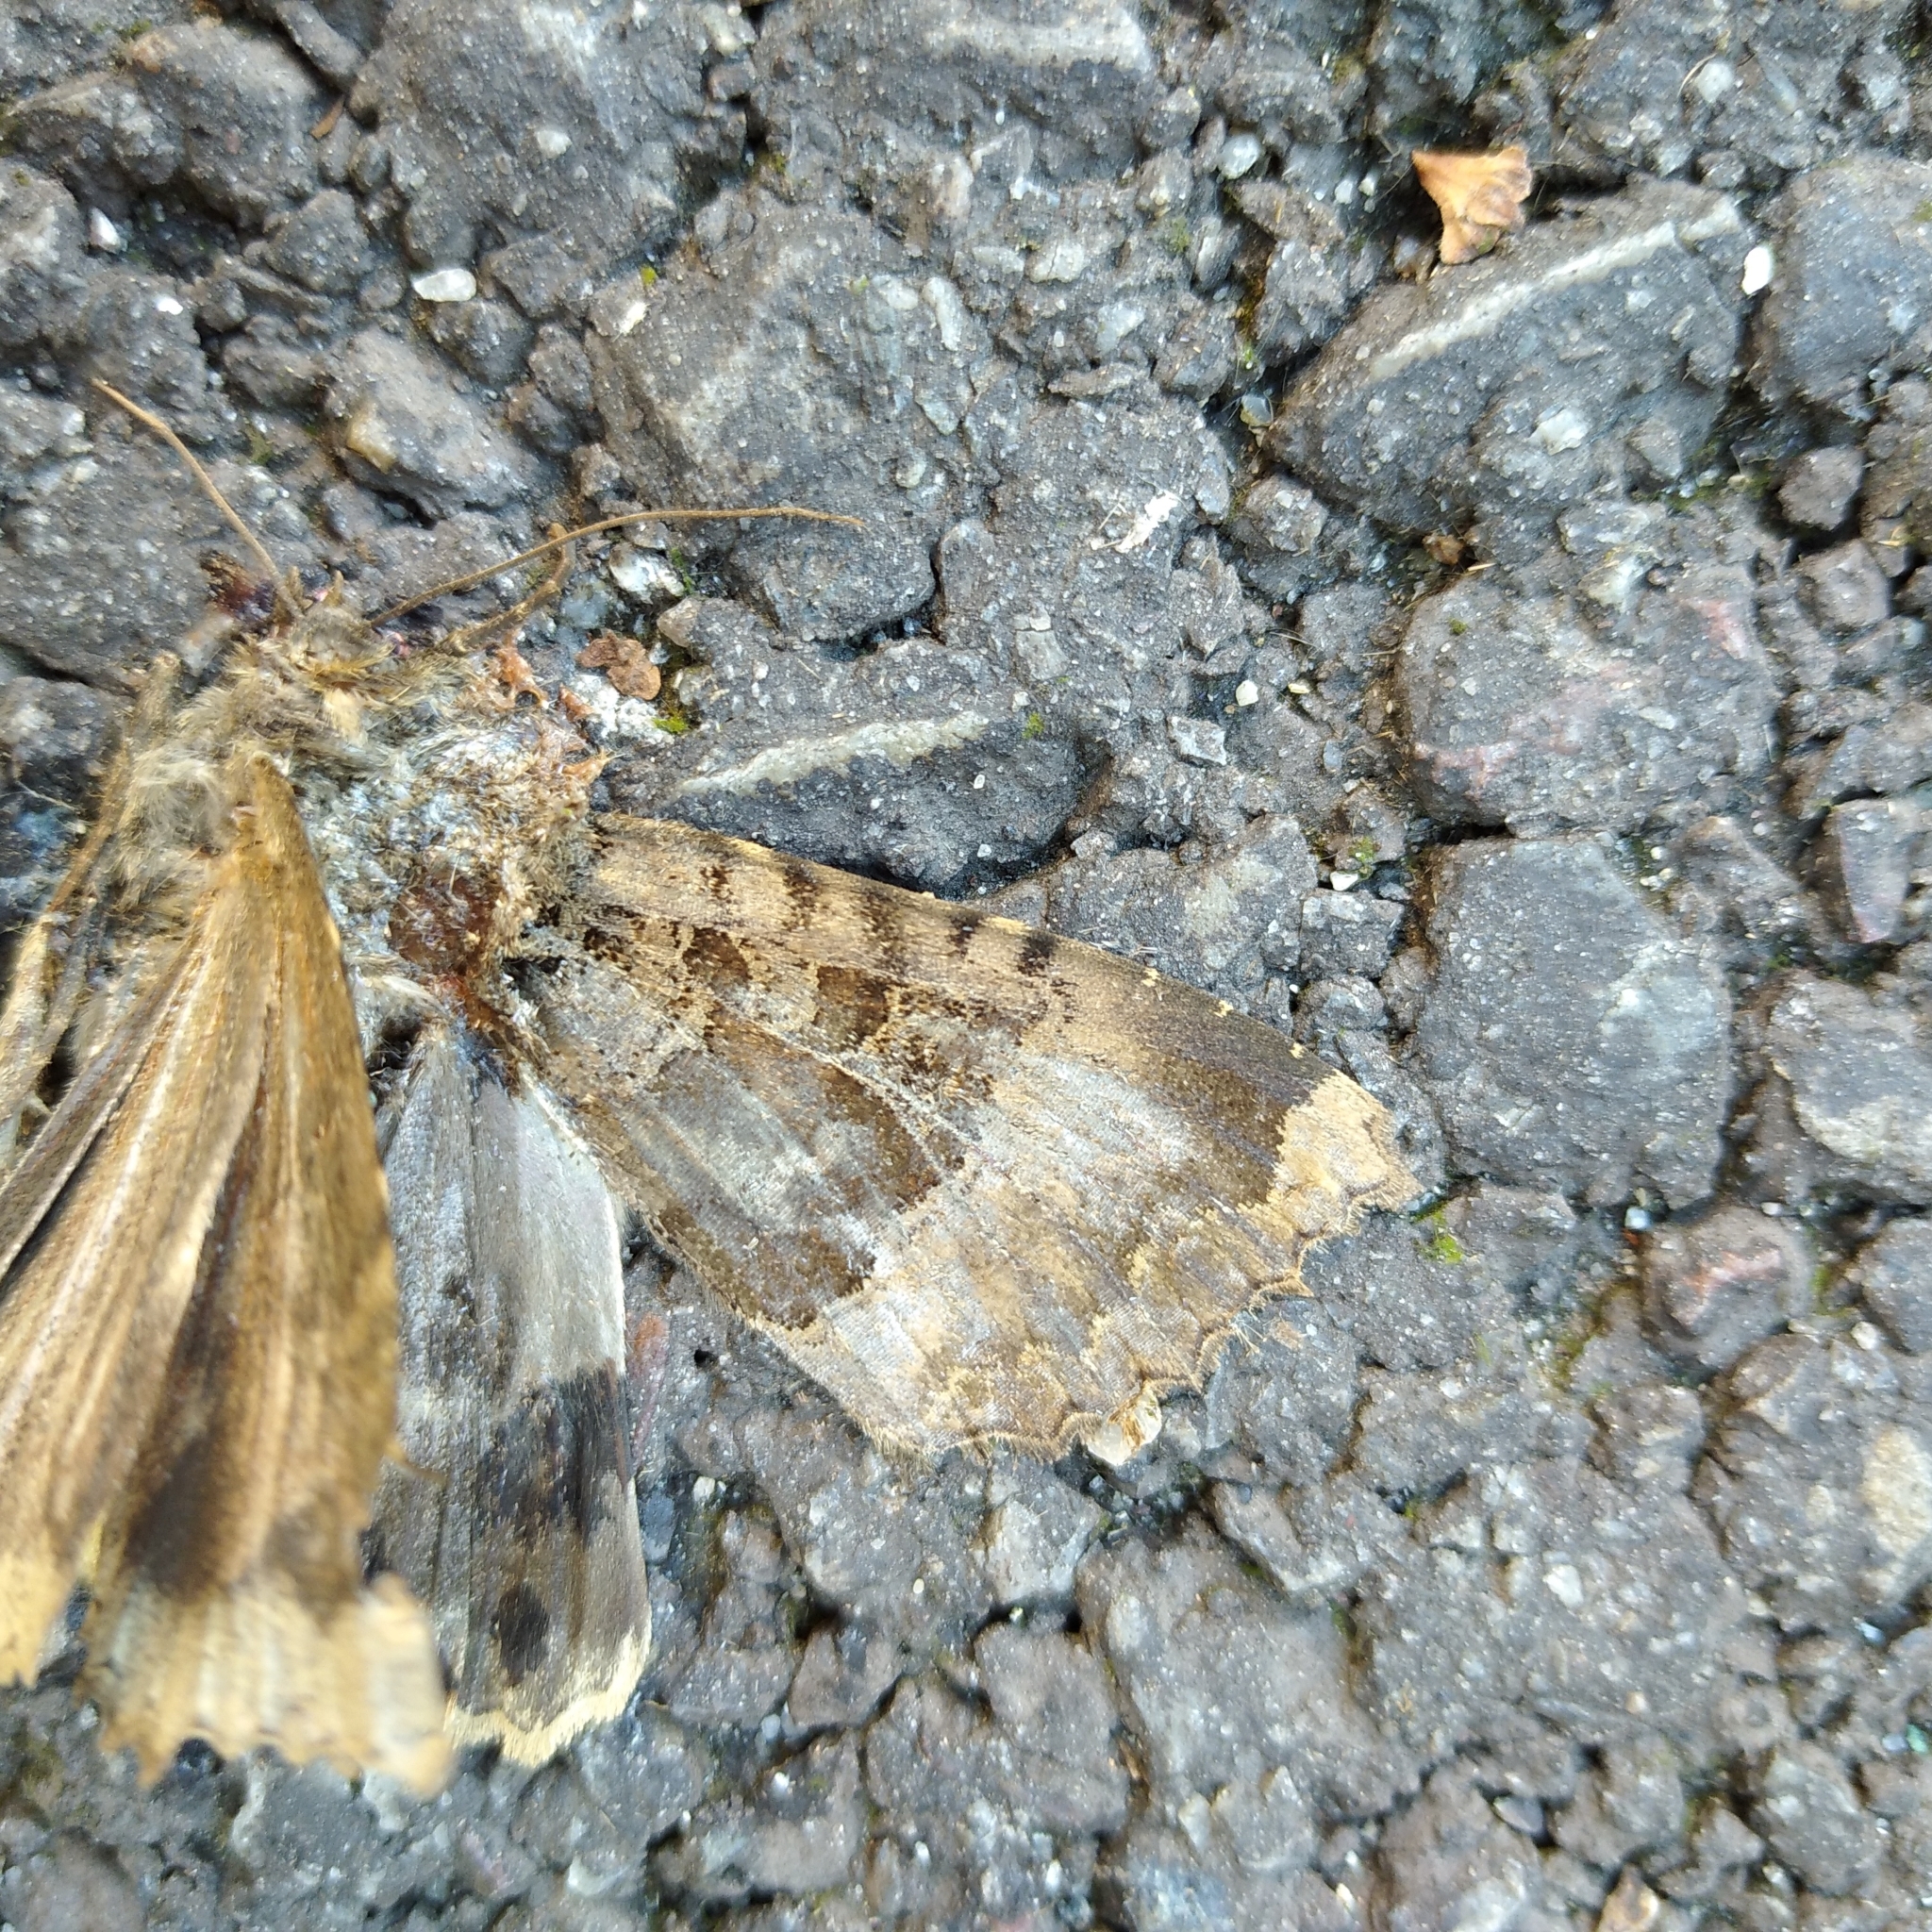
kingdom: Animalia
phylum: Arthropoda
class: Insecta
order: Lepidoptera
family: Noctuidae
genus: Mormo
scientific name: Mormo maura
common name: Old lady
